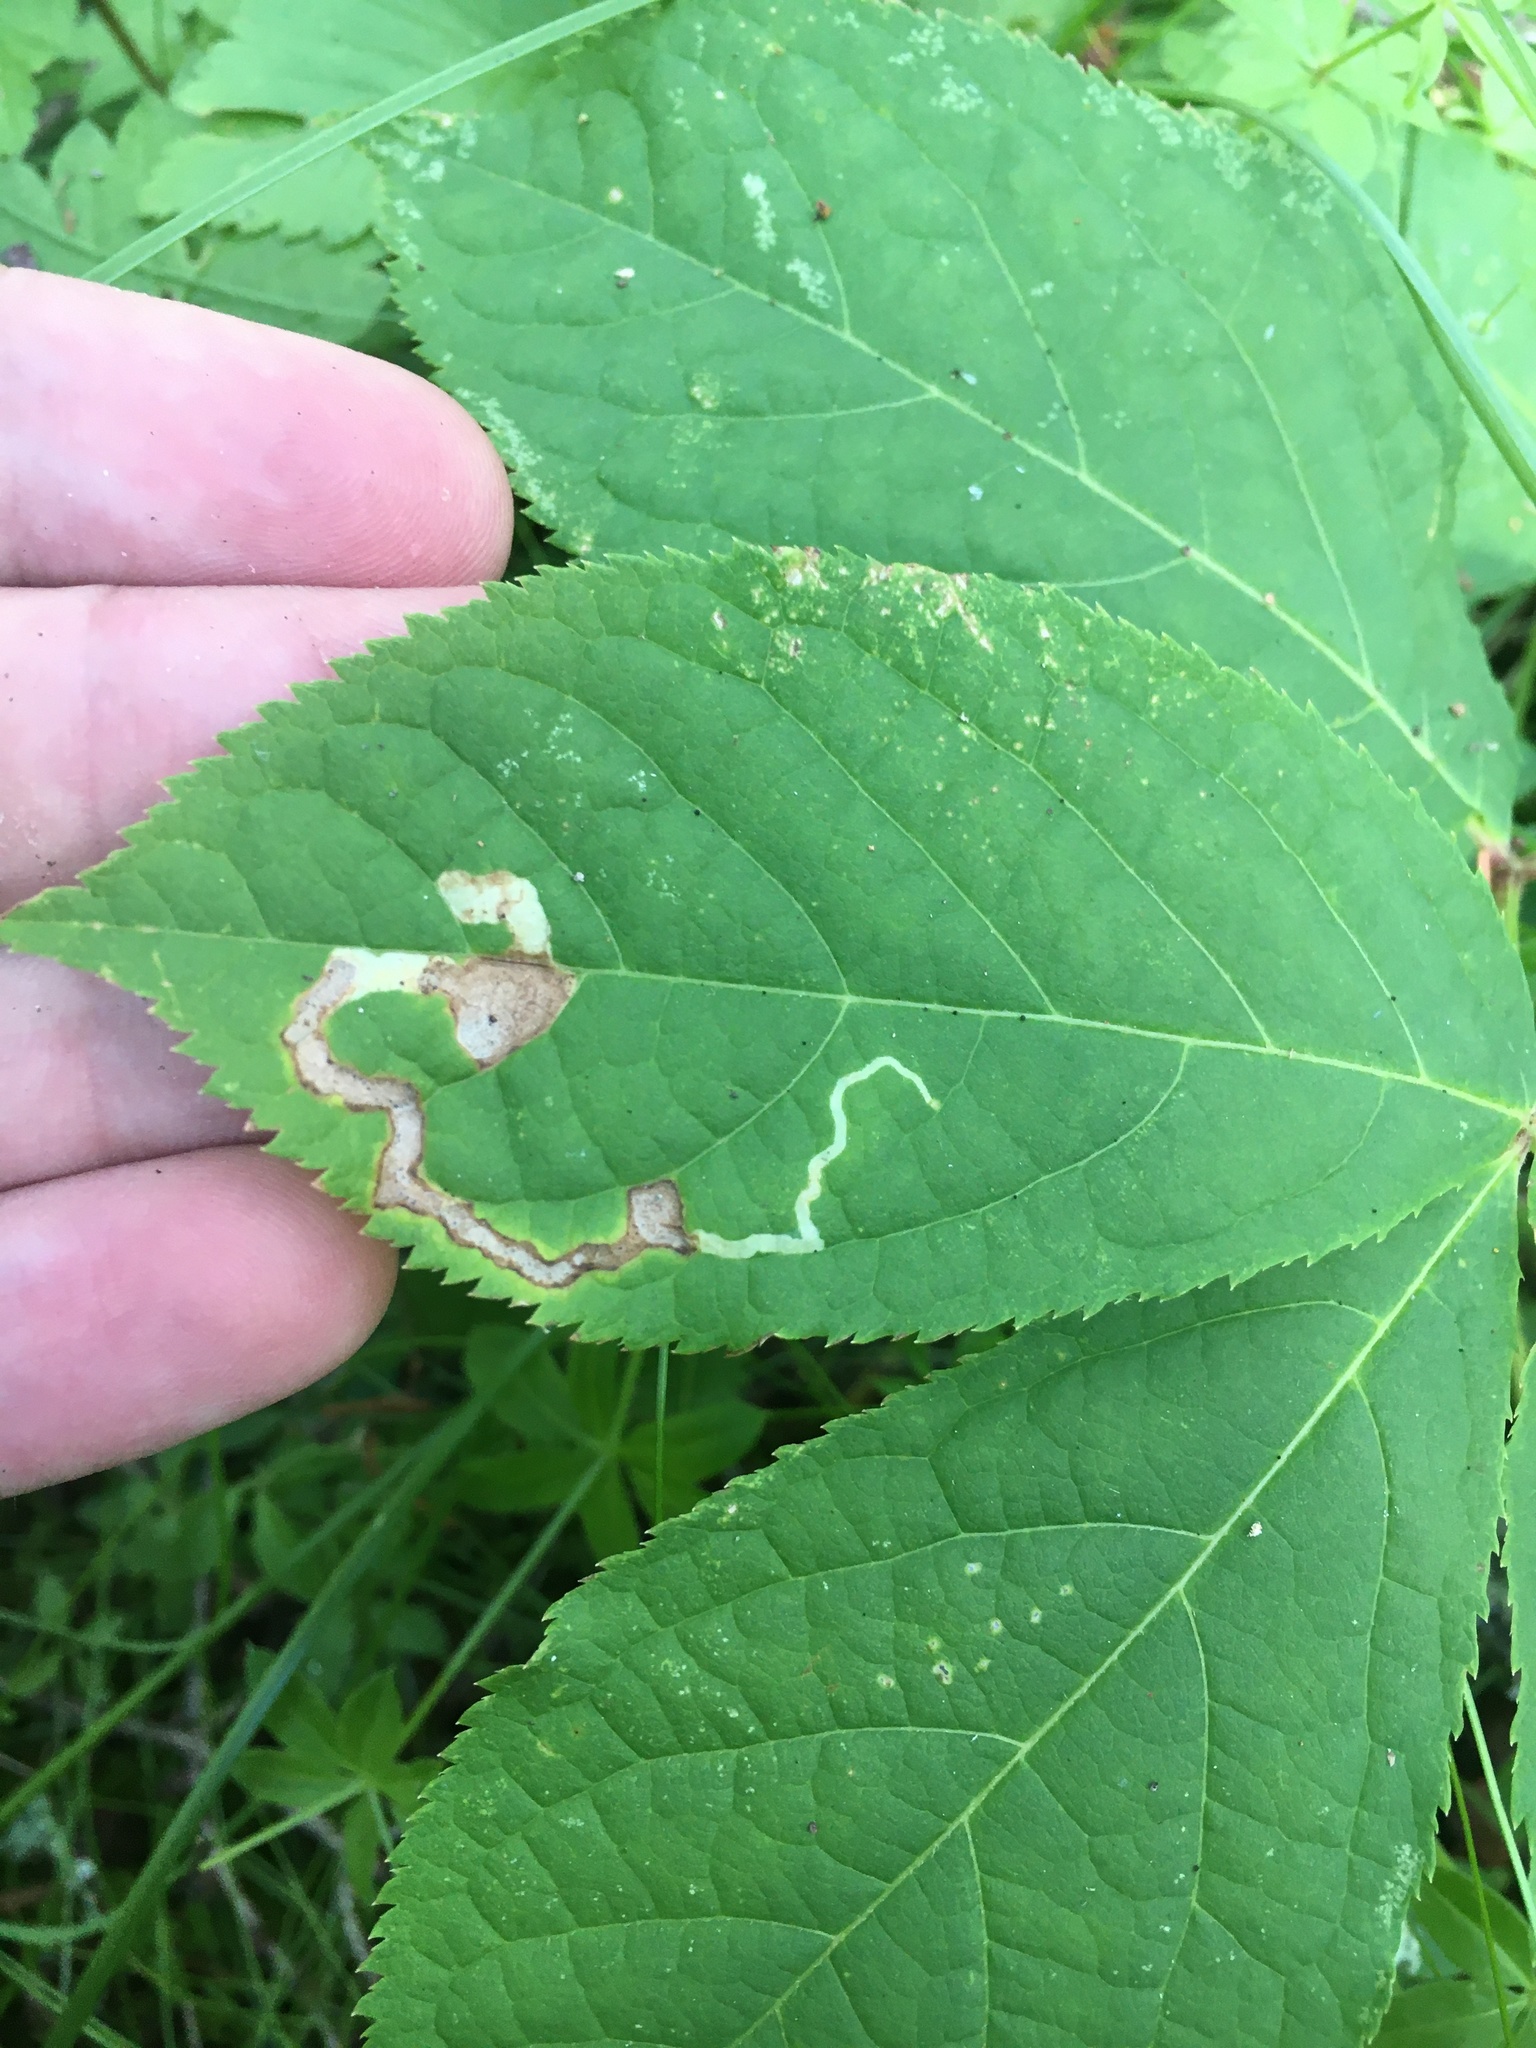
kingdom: Animalia
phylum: Arthropoda
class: Insecta
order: Diptera
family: Agromyzidae
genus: Phytomyza
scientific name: Phytomyza aralivora
